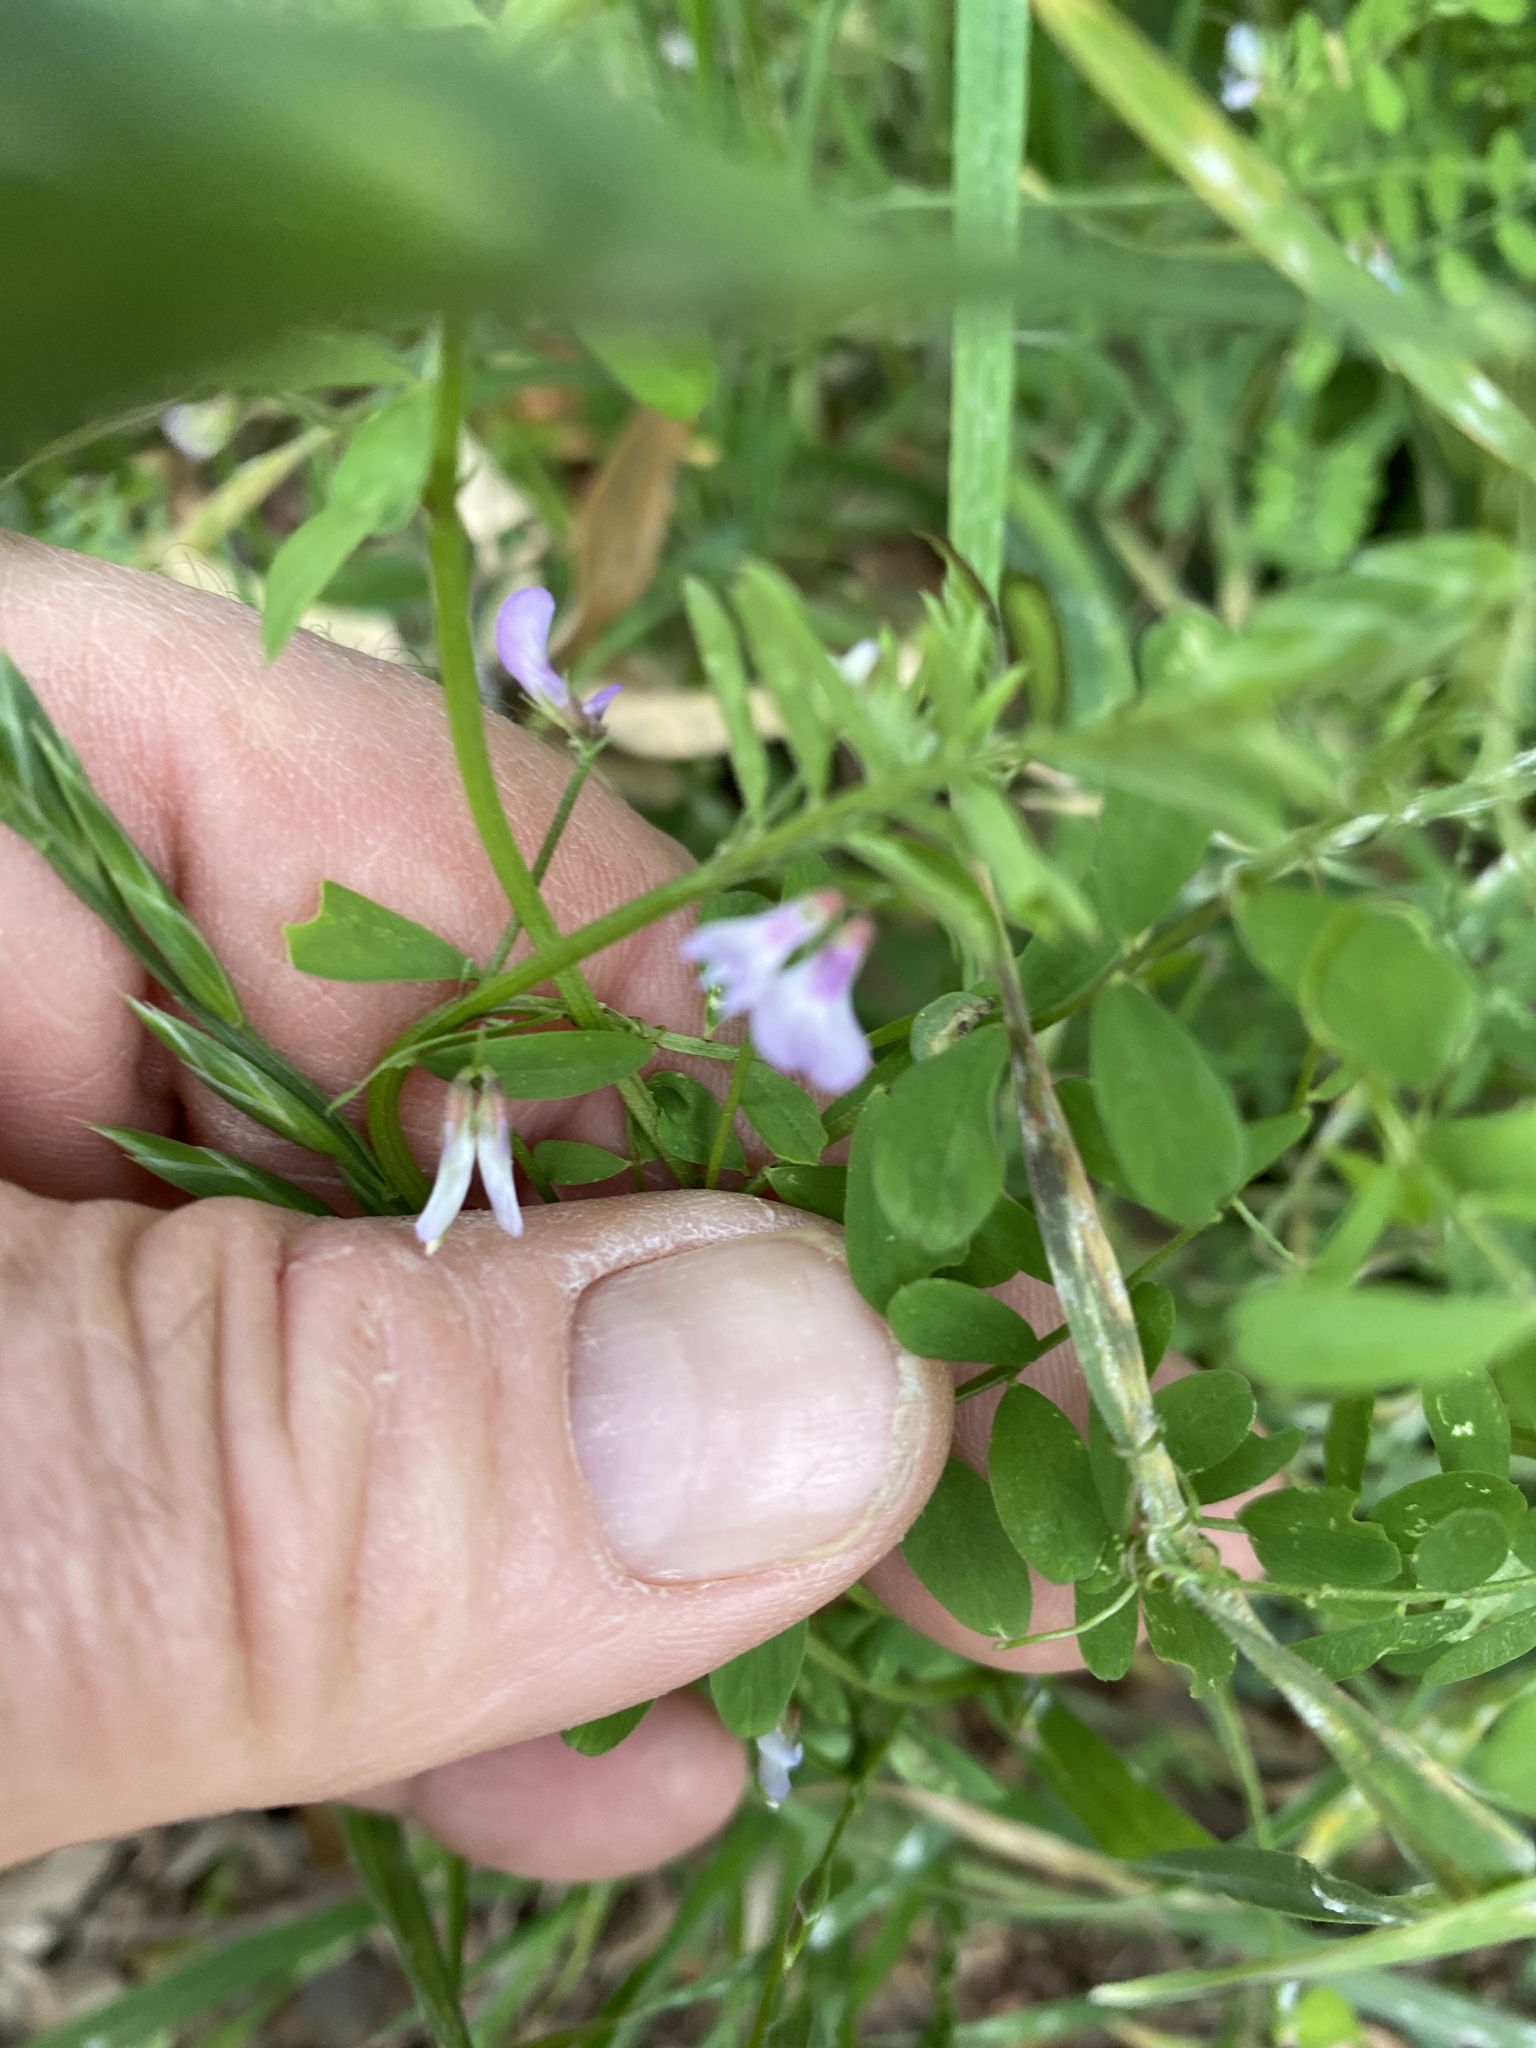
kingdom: Plantae
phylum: Tracheophyta
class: Magnoliopsida
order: Fabales
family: Fabaceae
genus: Vicia
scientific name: Vicia ludoviciana
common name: Louisiana vetch
